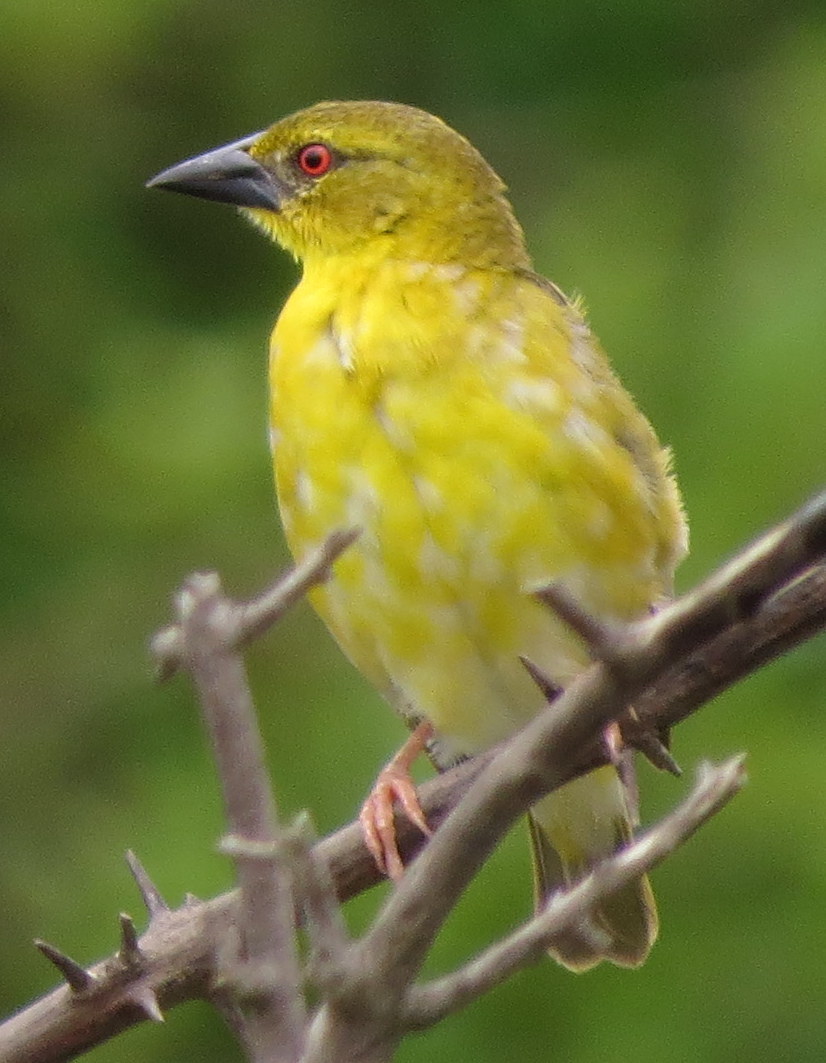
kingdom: Animalia
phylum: Chordata
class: Aves
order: Passeriformes
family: Ploceidae
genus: Ploceus
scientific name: Ploceus cucullatus
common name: Village weaver
